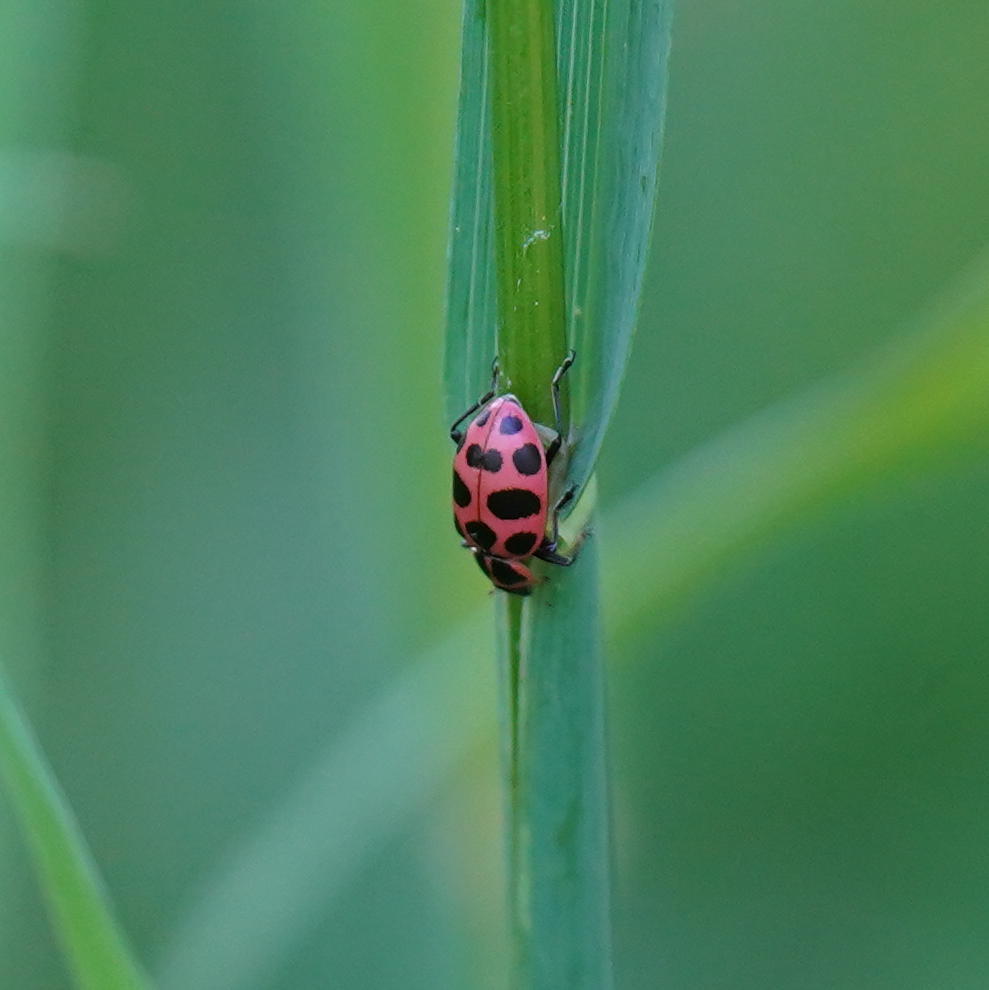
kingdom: Animalia
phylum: Arthropoda
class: Insecta
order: Coleoptera
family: Coccinellidae
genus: Coleomegilla
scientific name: Coleomegilla maculata
